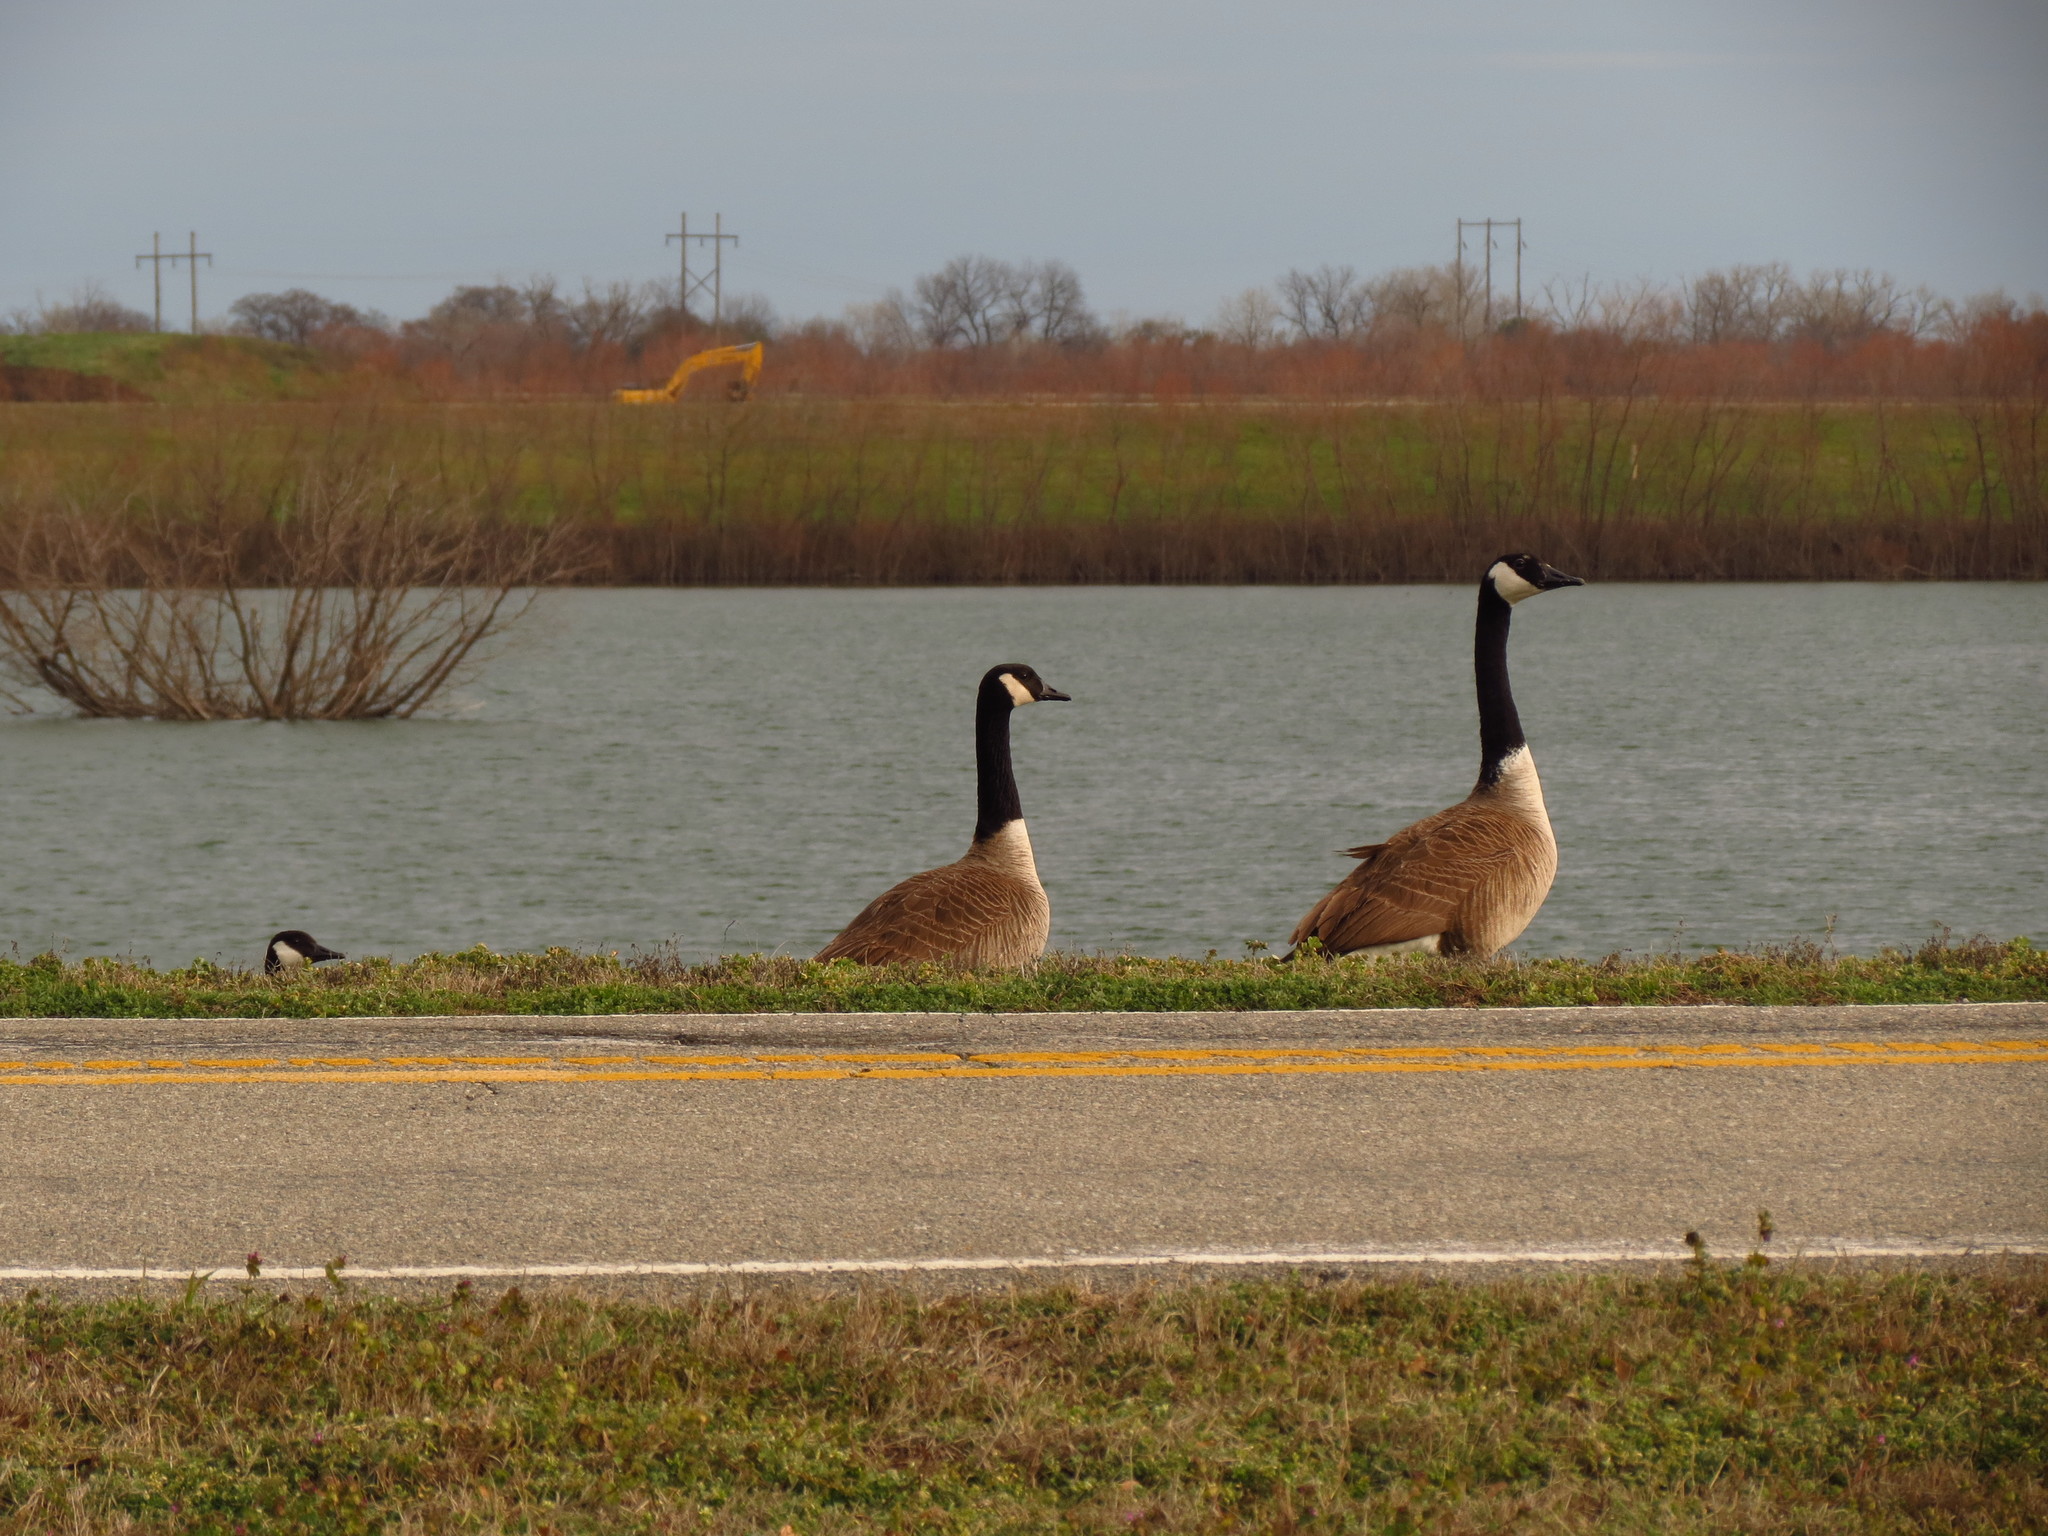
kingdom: Animalia
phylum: Chordata
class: Aves
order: Anseriformes
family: Anatidae
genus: Branta
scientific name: Branta canadensis
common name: Canada goose
